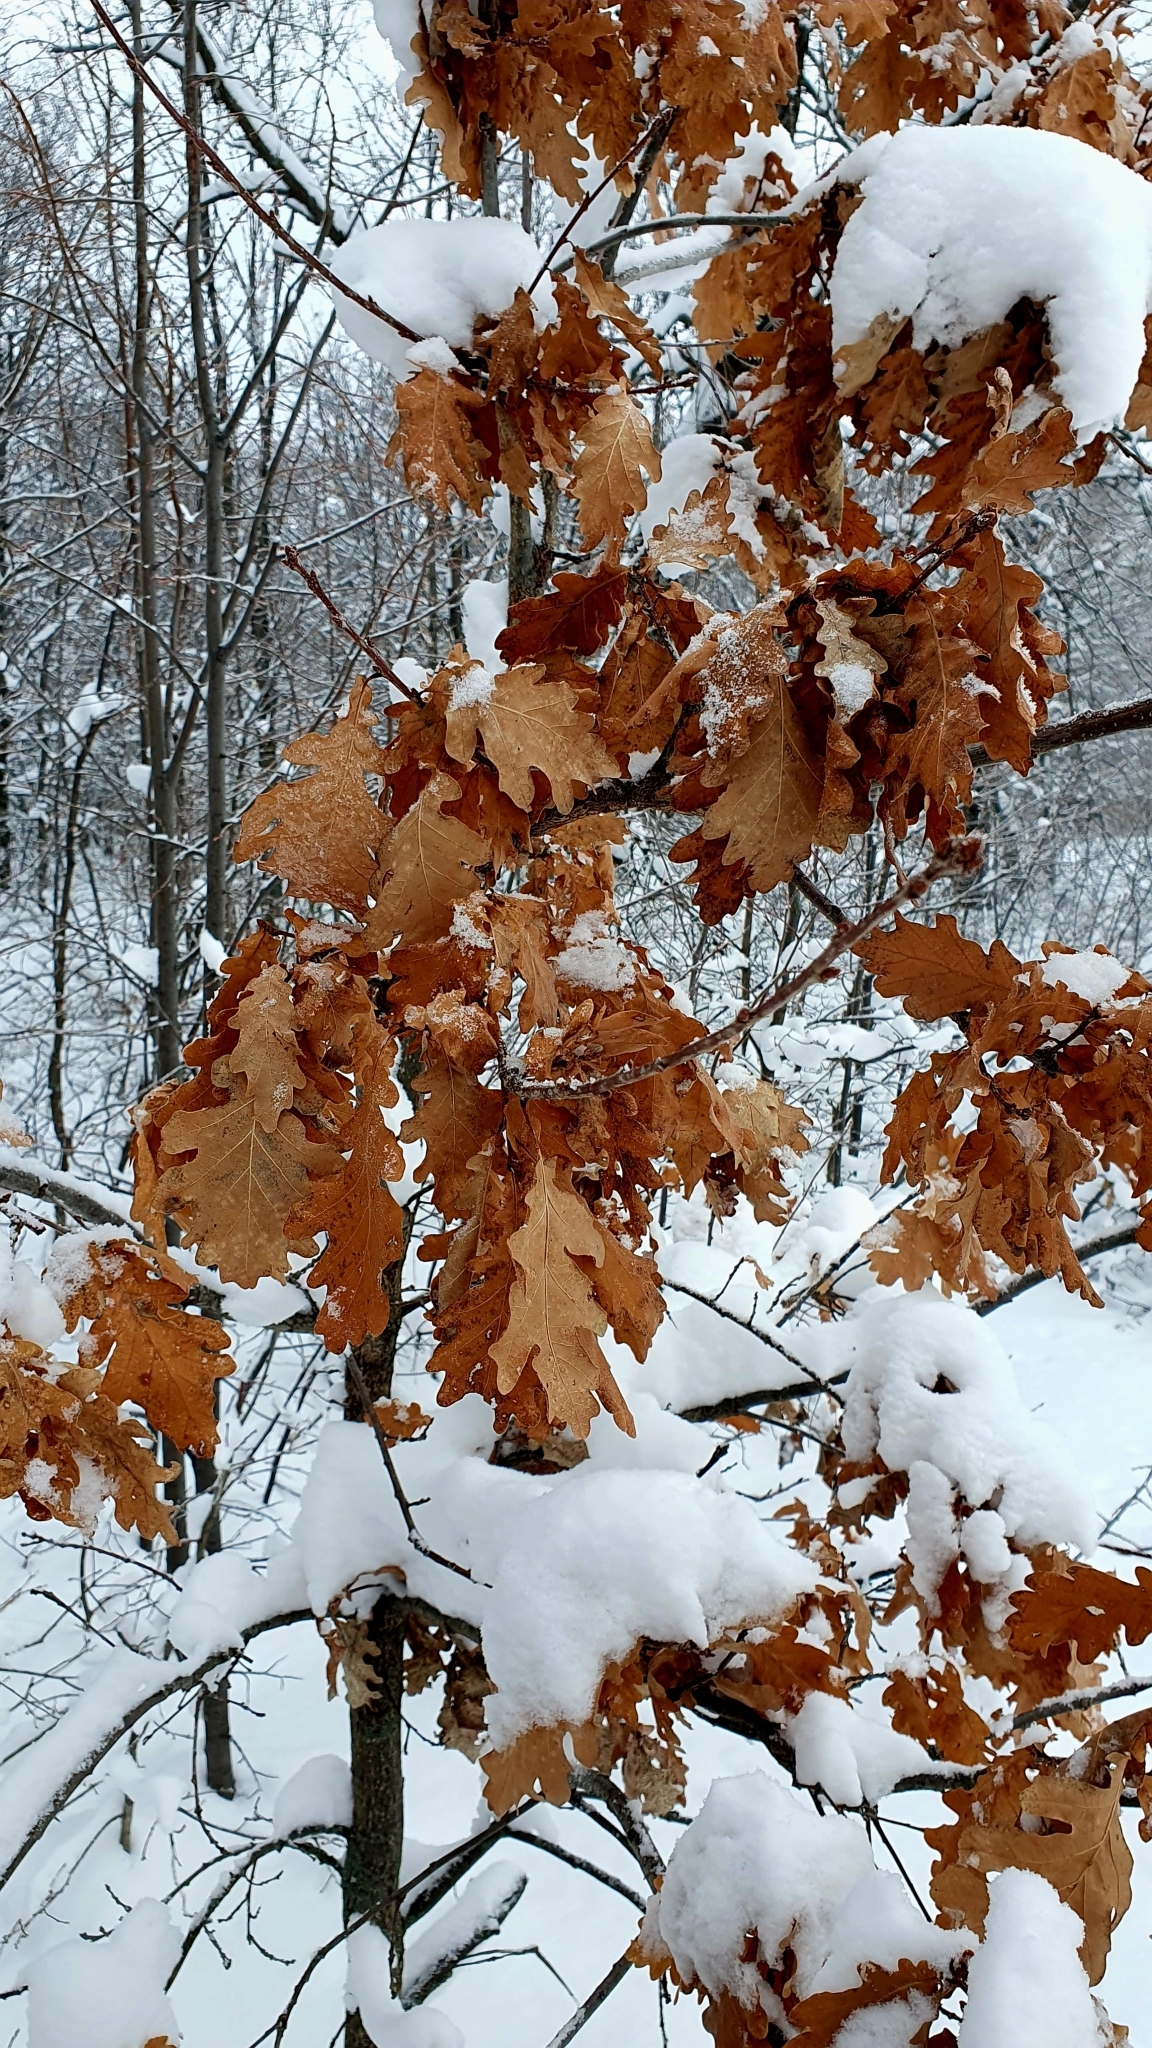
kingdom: Plantae
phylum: Tracheophyta
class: Magnoliopsida
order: Fagales
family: Fagaceae
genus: Quercus
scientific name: Quercus robur
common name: Pedunculate oak
